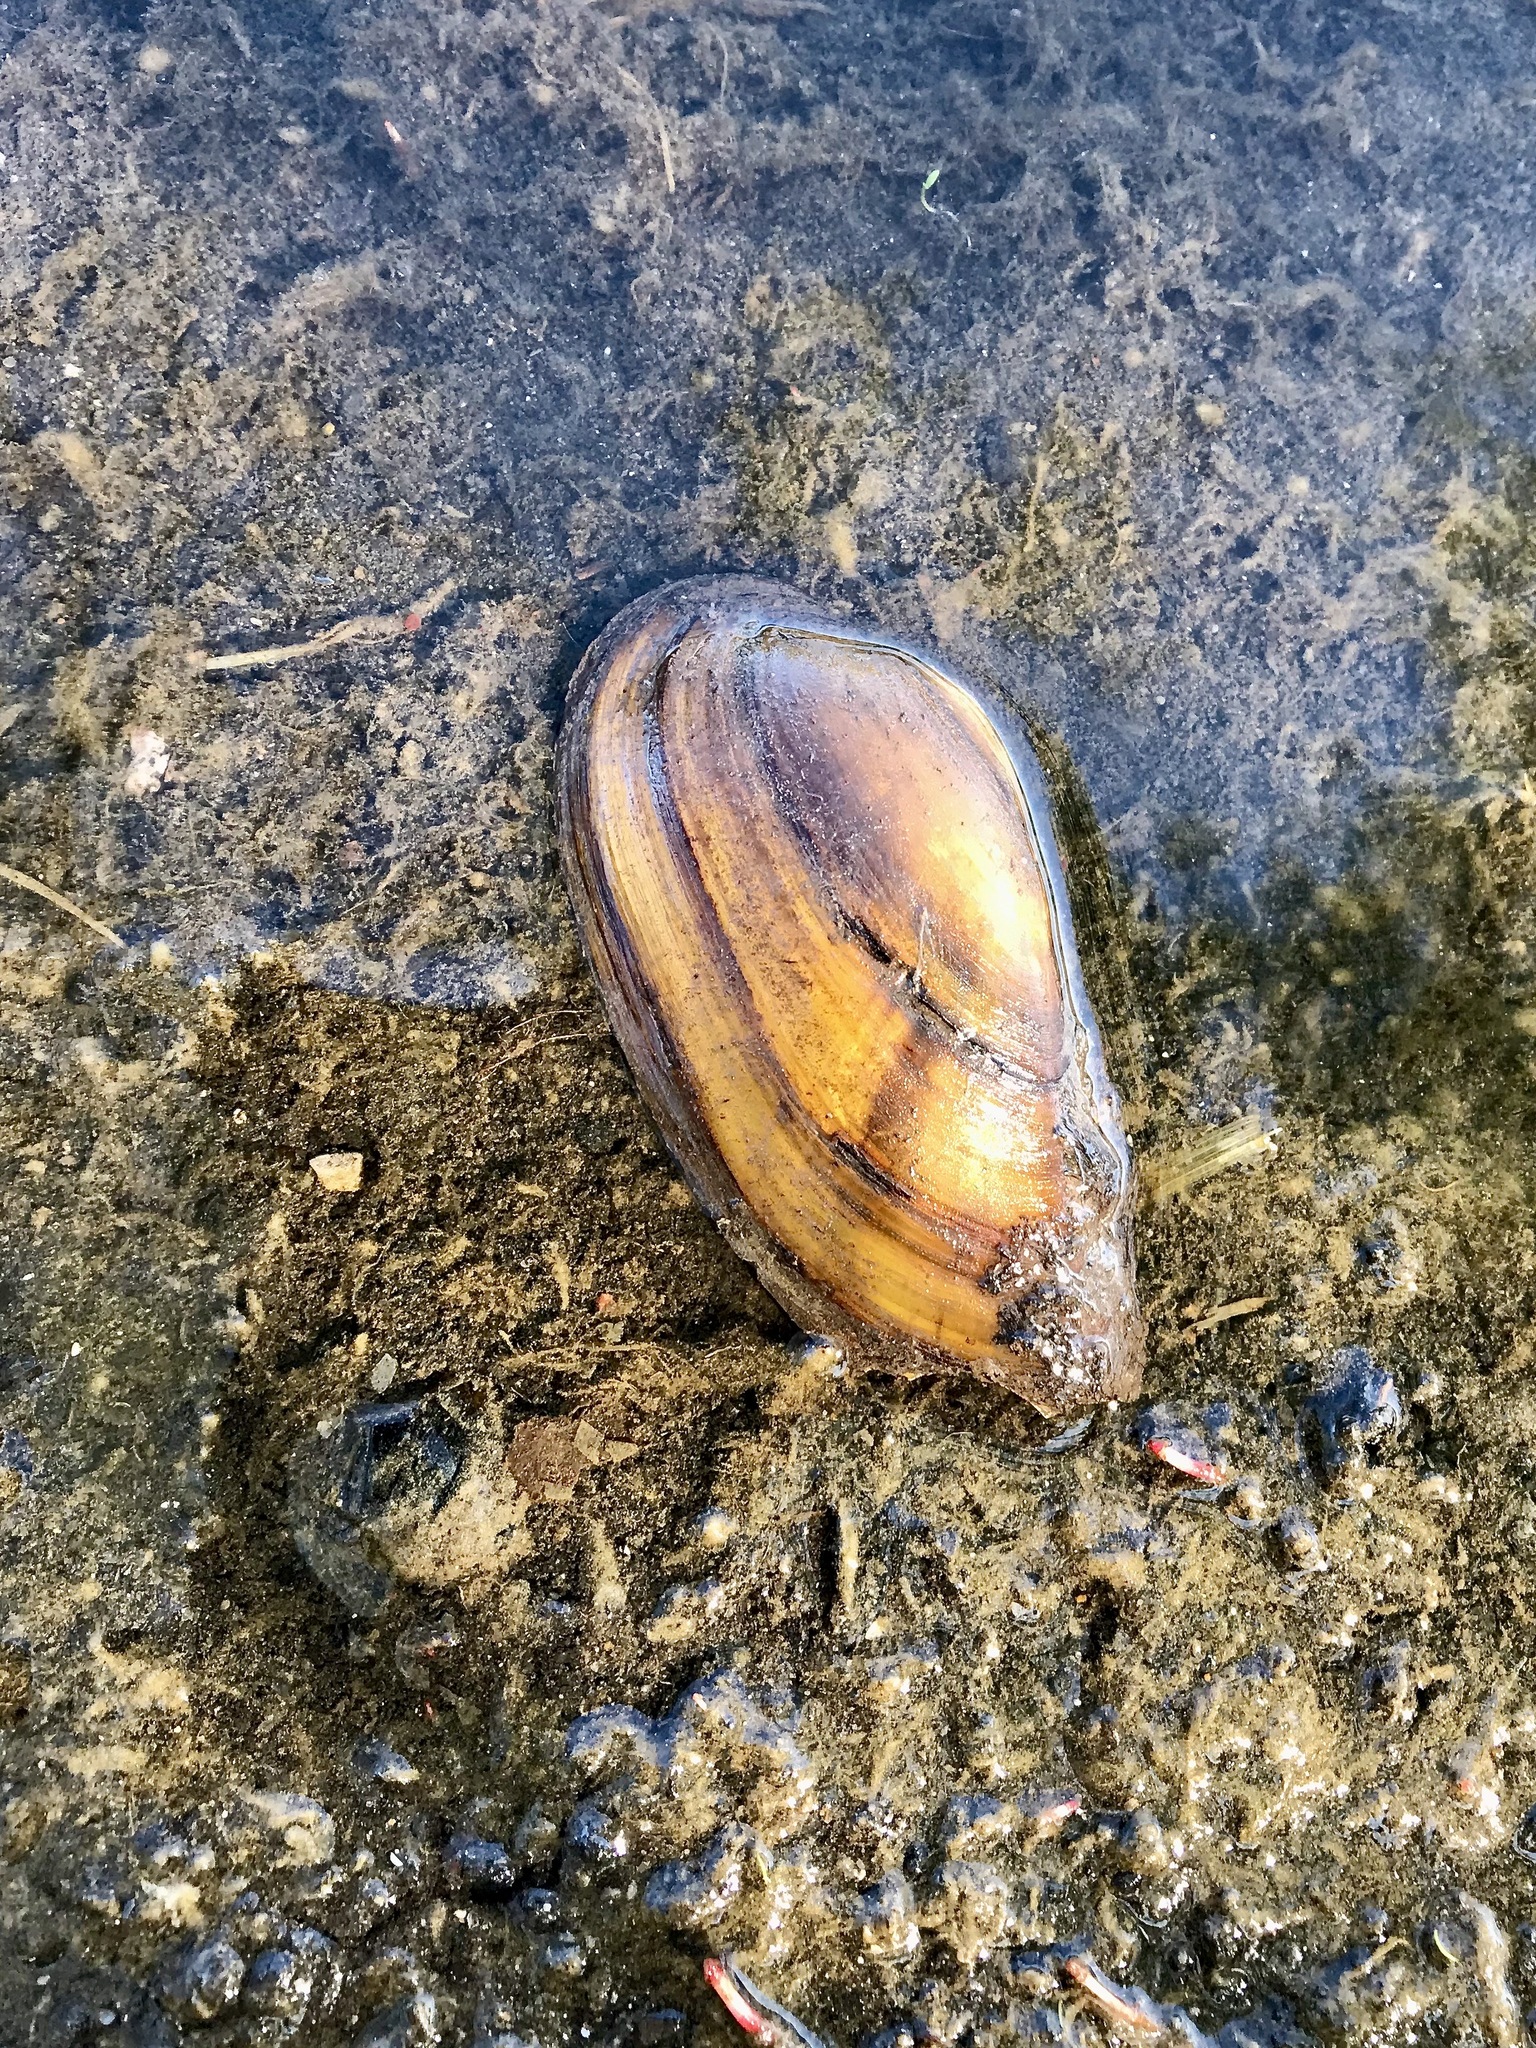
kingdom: Animalia
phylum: Mollusca
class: Bivalvia
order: Unionida
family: Unionidae
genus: Unio
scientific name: Unio tumidus
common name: Swollen river mussel
